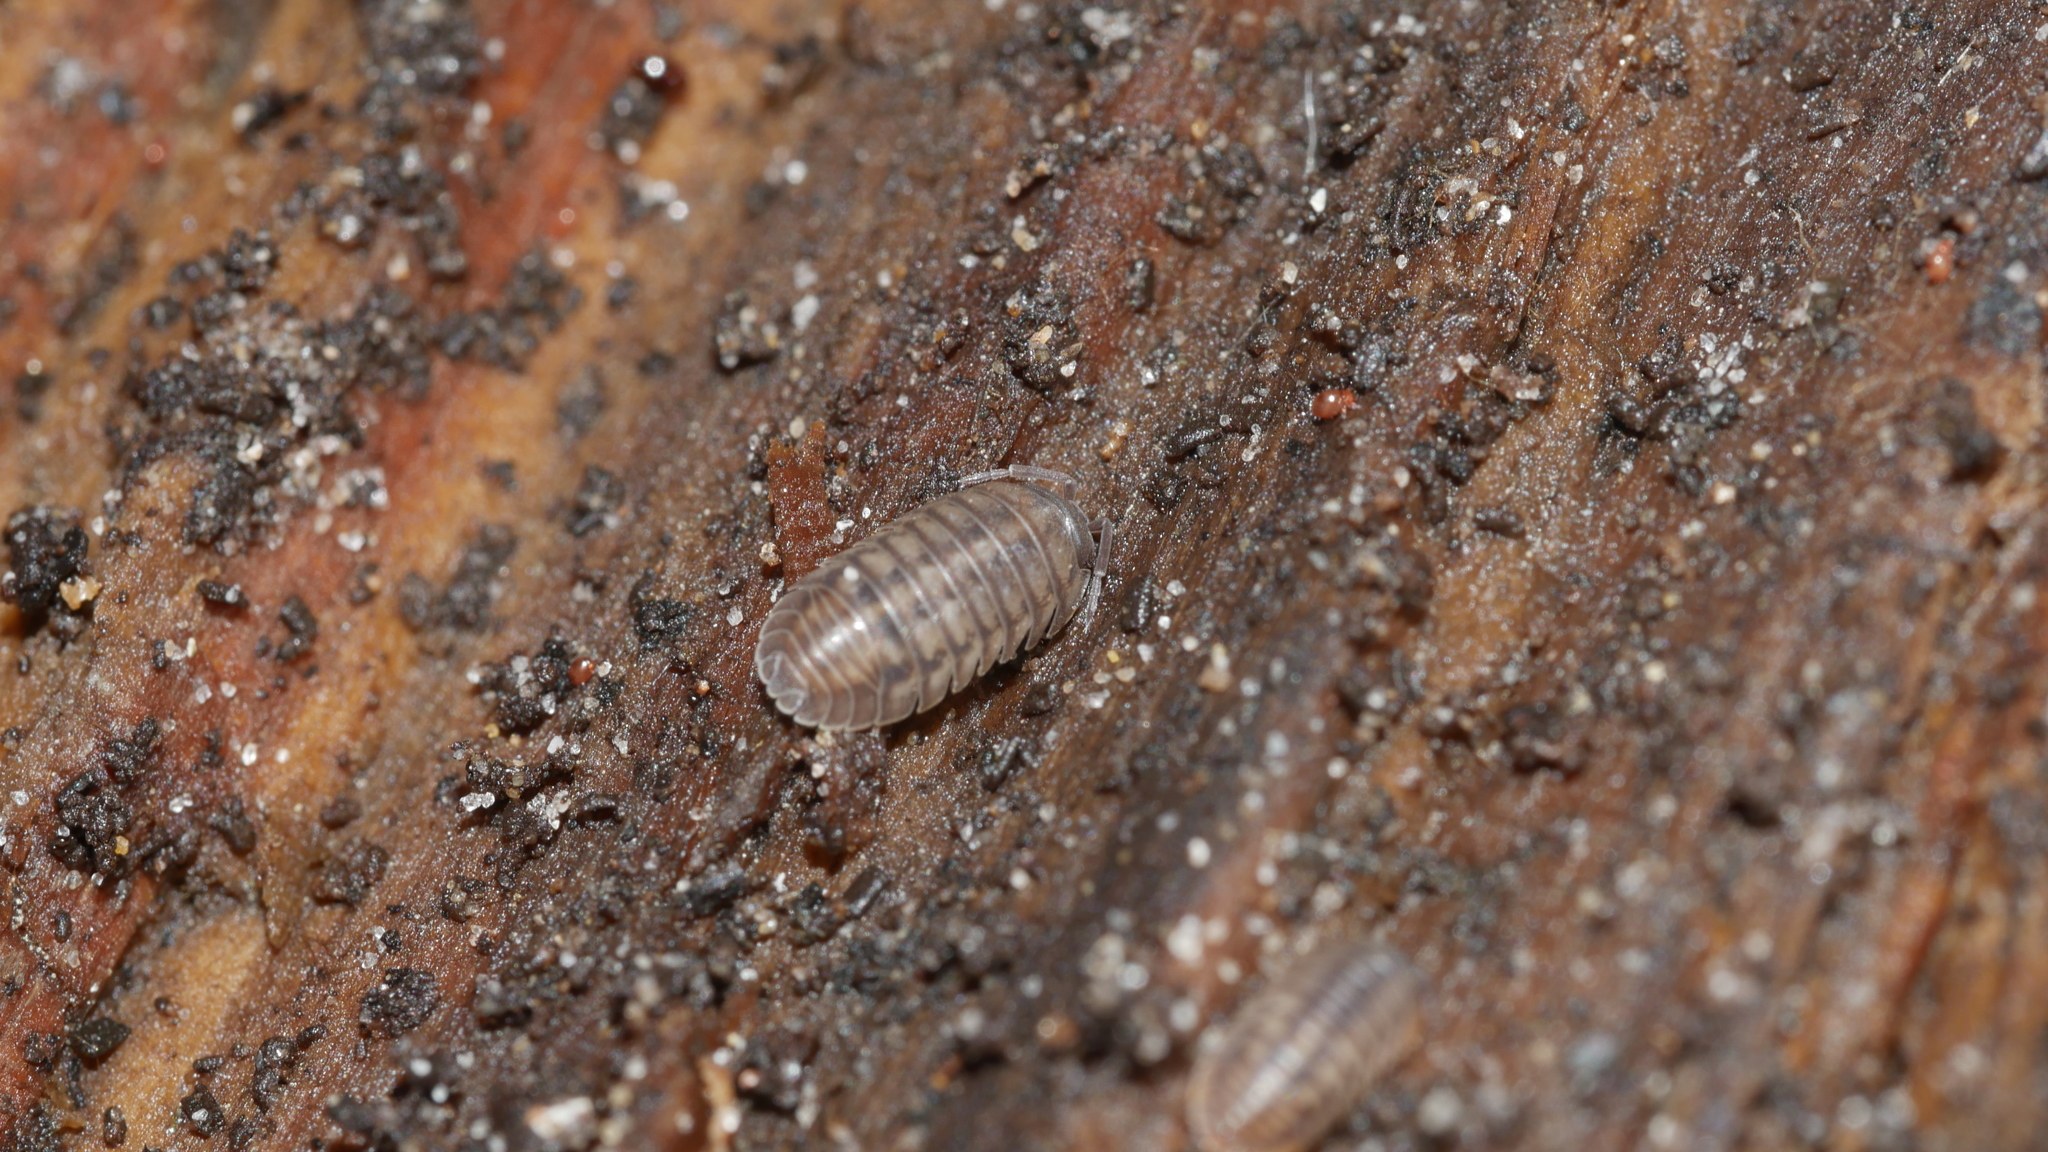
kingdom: Animalia
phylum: Arthropoda
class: Malacostraca
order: Isopoda
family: Armadillidiidae
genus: Armadillidium
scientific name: Armadillidium nasatum
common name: Isopod
